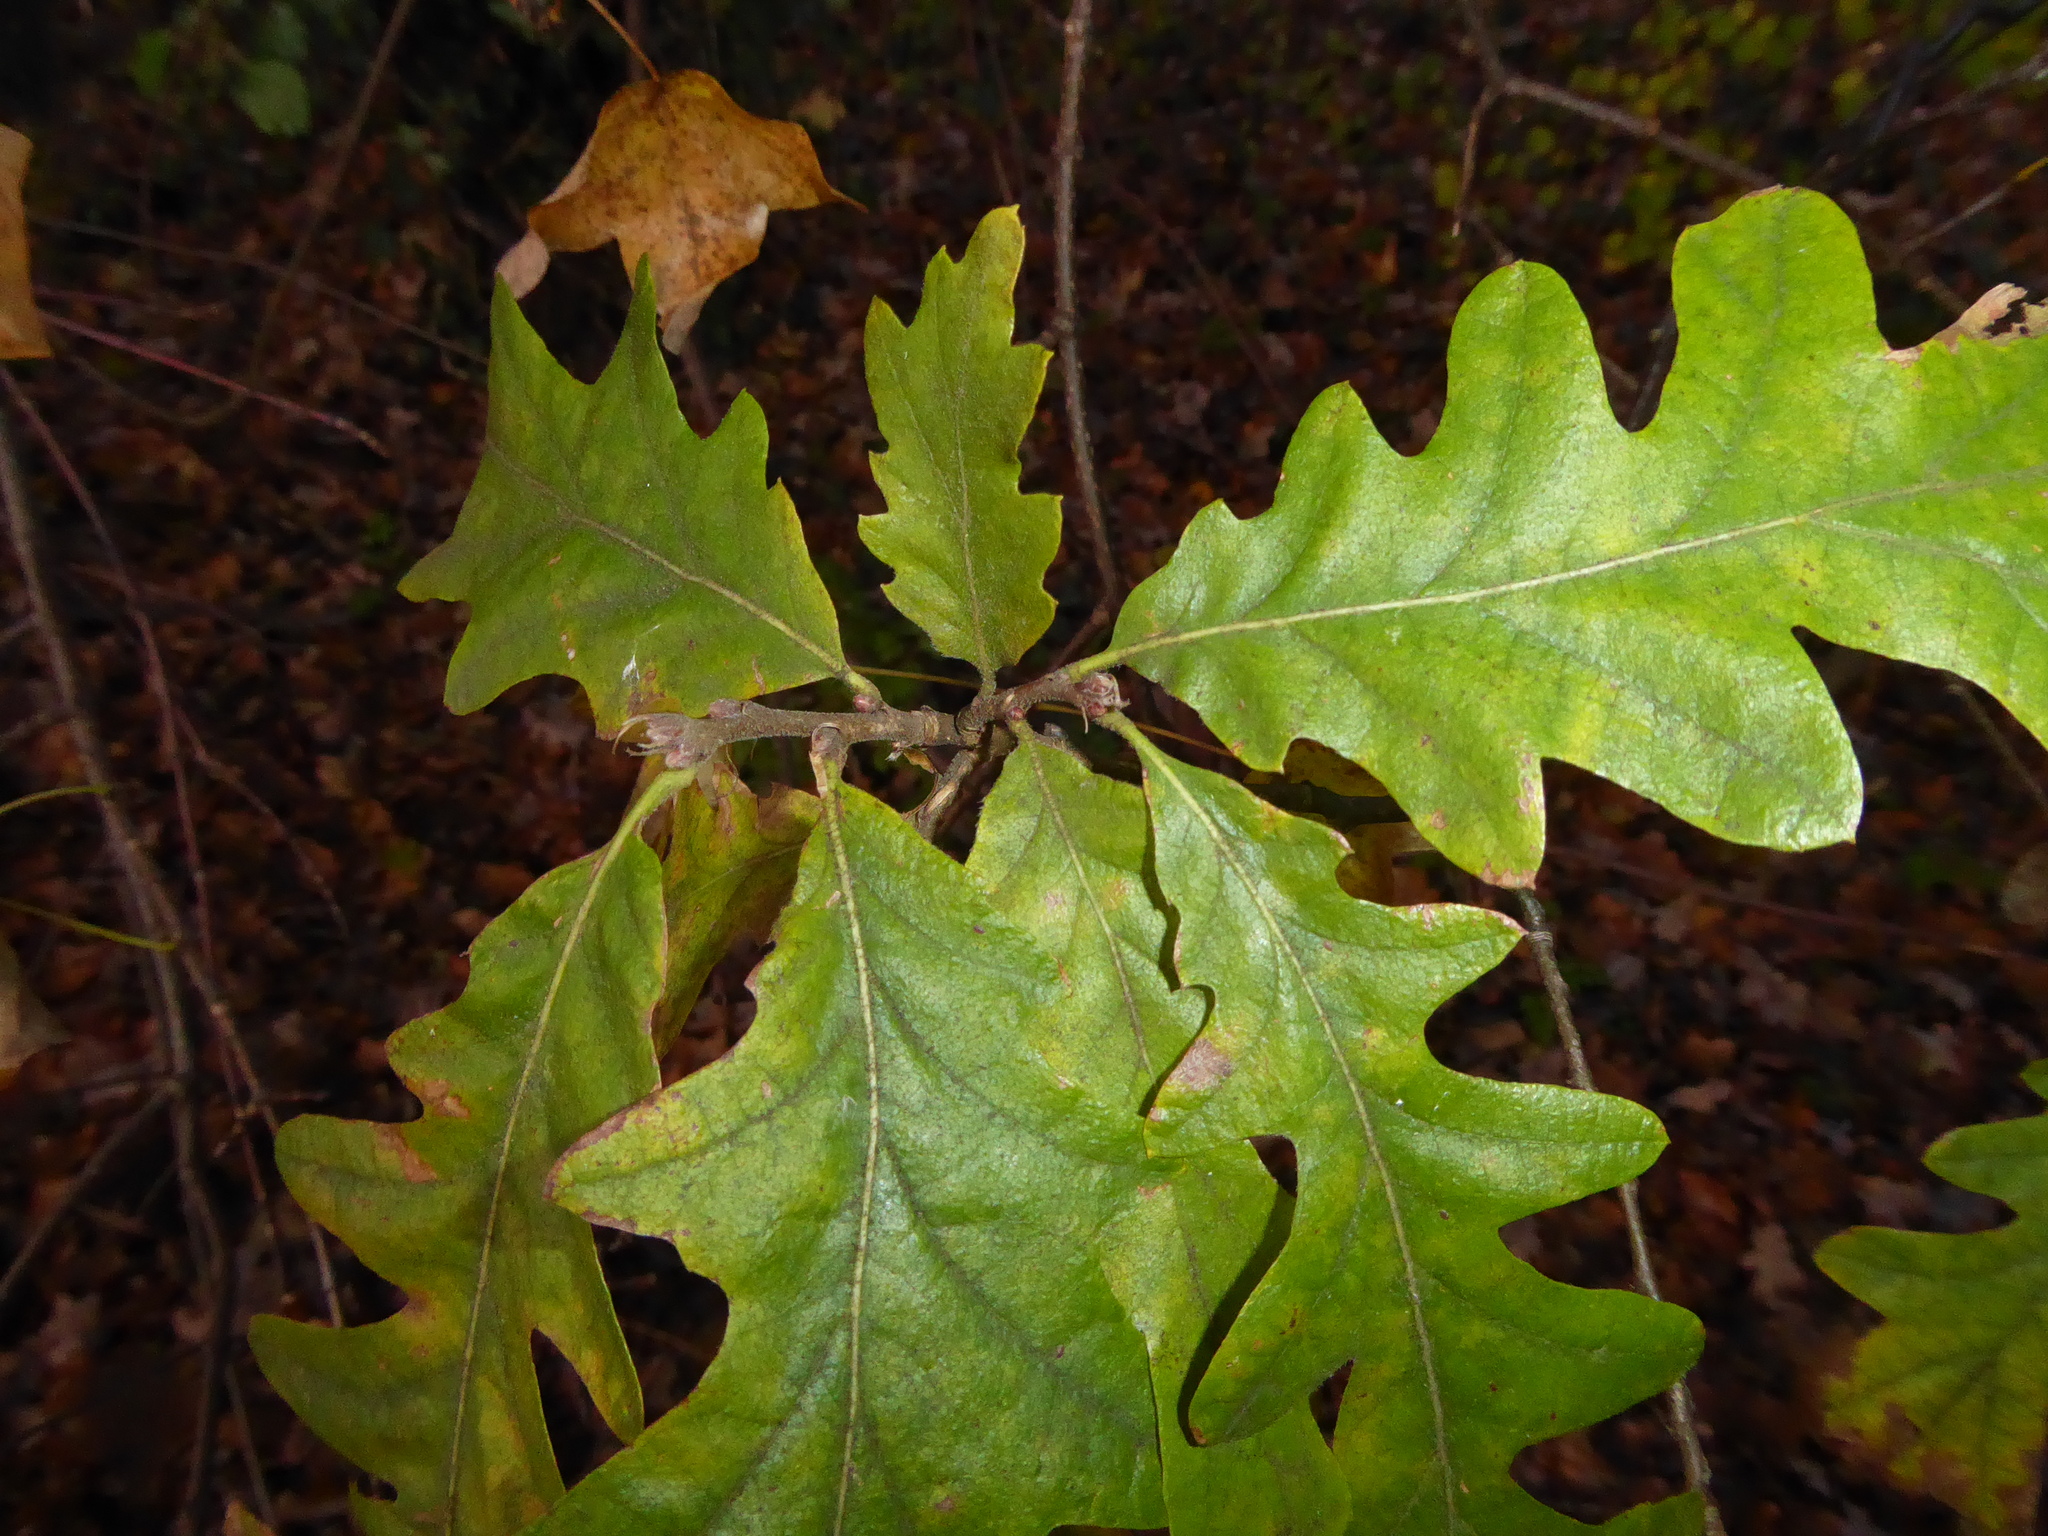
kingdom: Plantae
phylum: Tracheophyta
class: Magnoliopsida
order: Fagales
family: Fagaceae
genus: Quercus
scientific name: Quercus cerris
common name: Turkey oak
